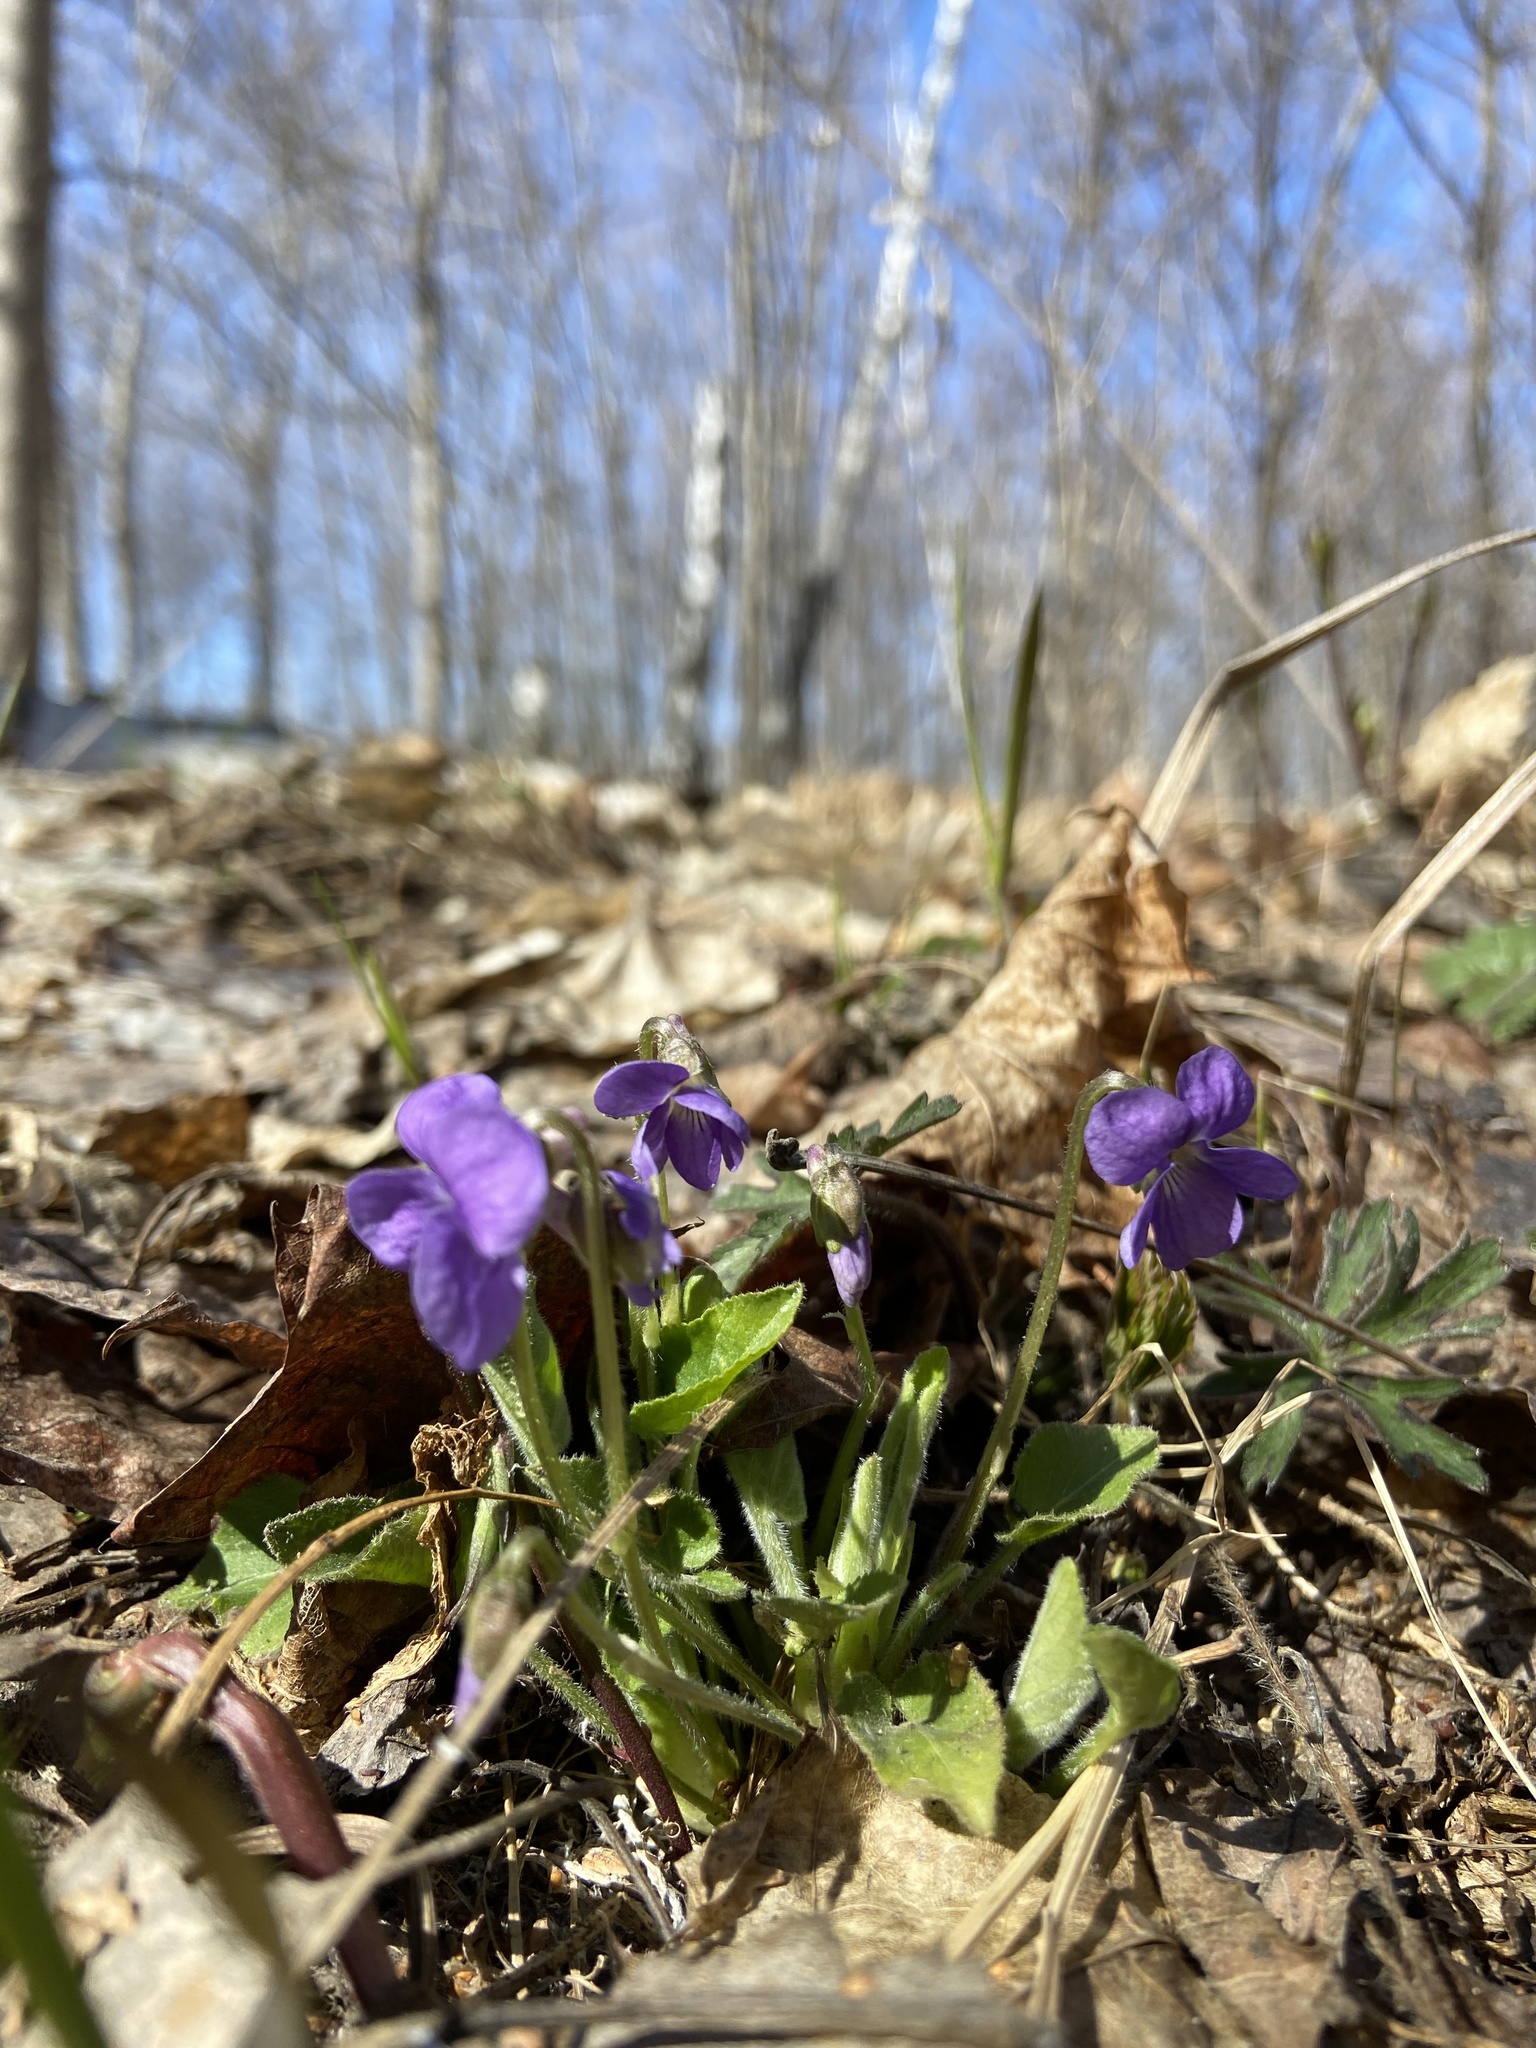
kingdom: Plantae
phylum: Tracheophyta
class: Magnoliopsida
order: Malpighiales
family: Violaceae
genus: Viola
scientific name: Viola hirta
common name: Hairy violet
